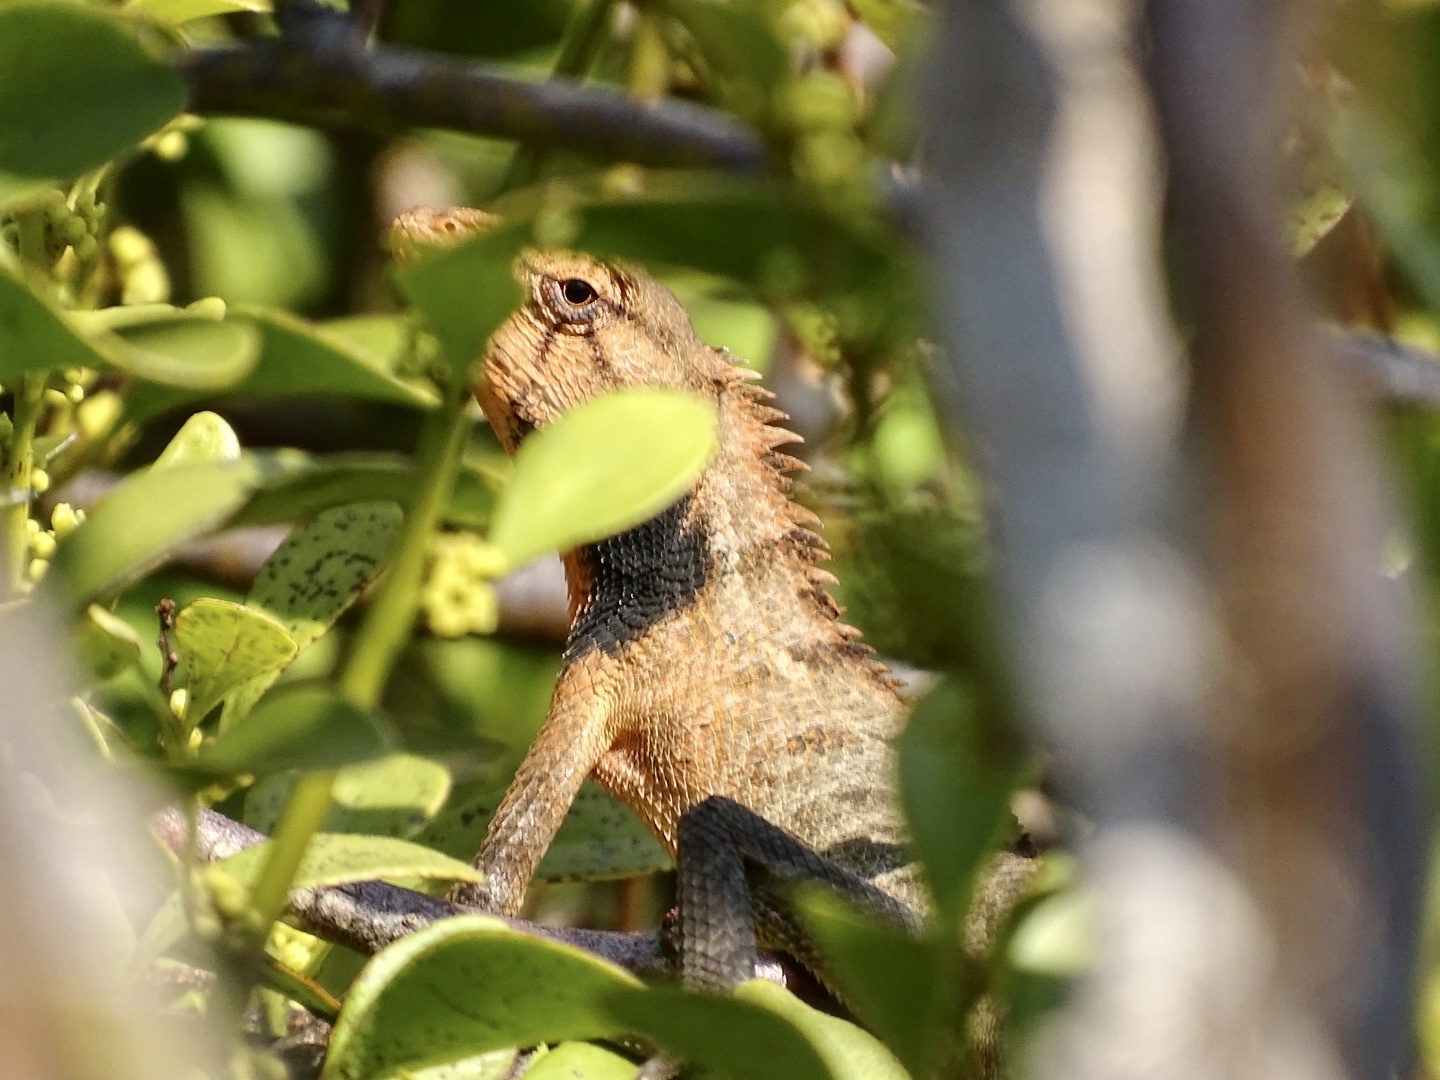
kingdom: Animalia
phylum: Chordata
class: Squamata
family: Agamidae
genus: Calotes
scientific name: Calotes versicolor
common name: Oriental garden lizard
